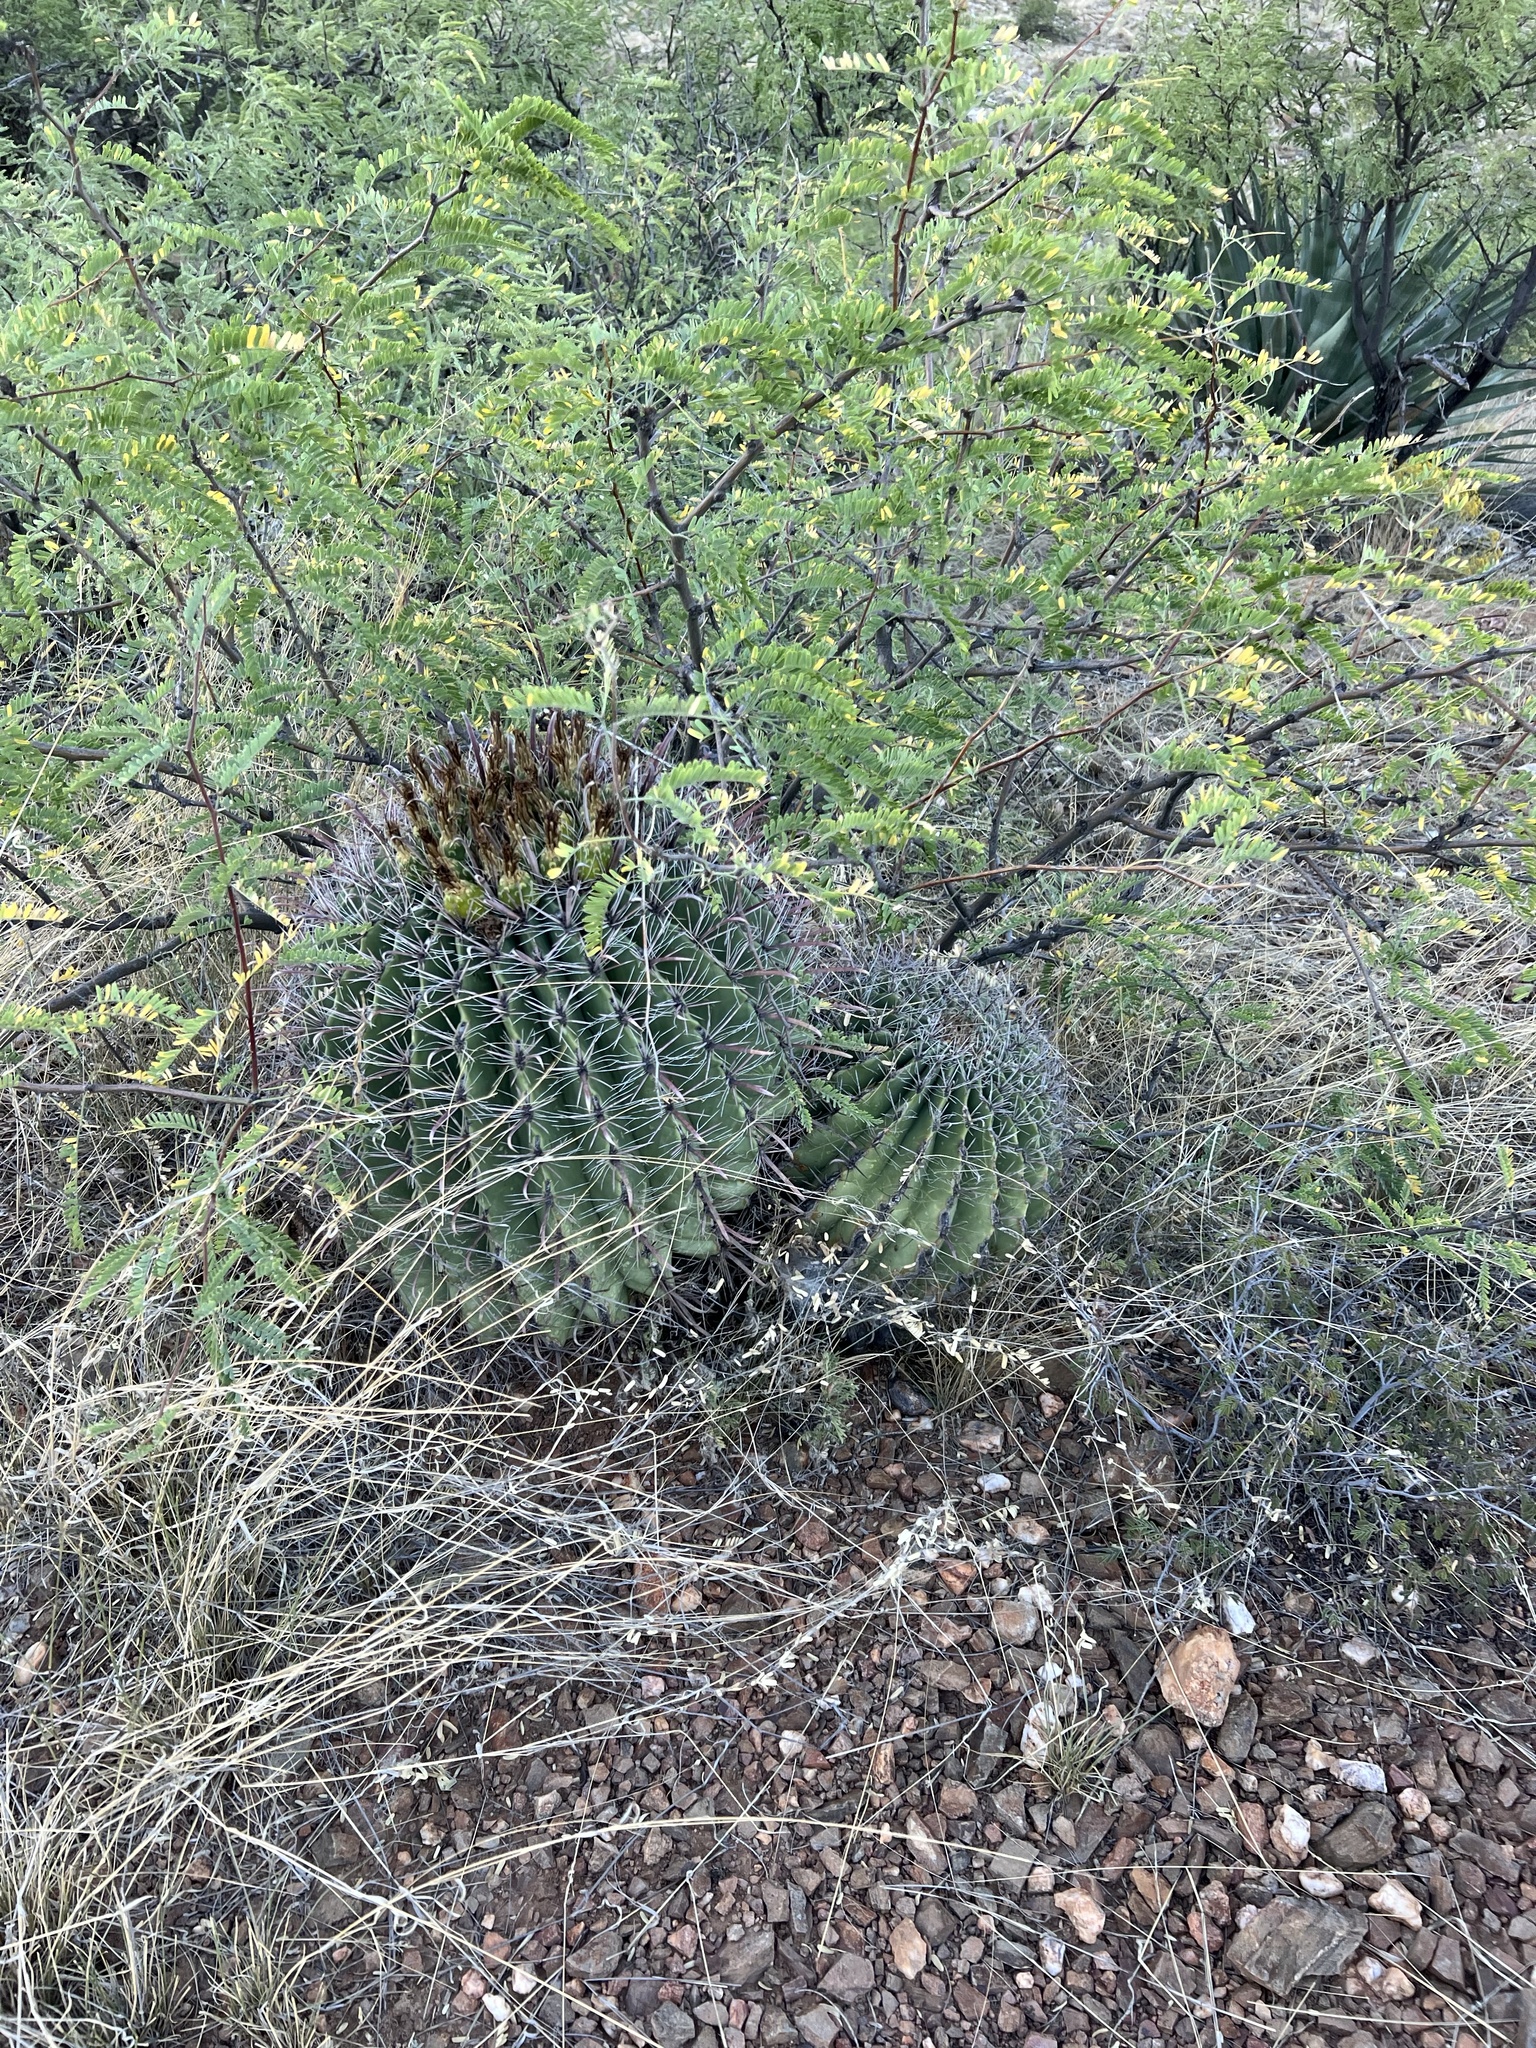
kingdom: Plantae
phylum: Tracheophyta
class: Magnoliopsida
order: Caryophyllales
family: Cactaceae
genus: Ferocactus
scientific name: Ferocactus wislizeni
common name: Candy barrel cactus
